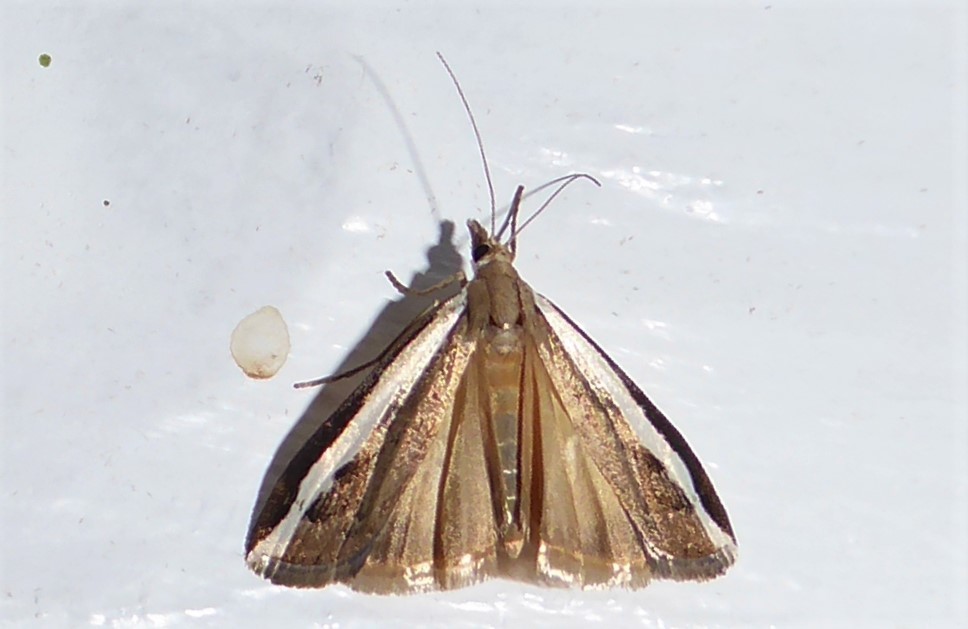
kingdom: Animalia
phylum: Arthropoda
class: Insecta
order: Lepidoptera
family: Crambidae
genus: Orocrambus
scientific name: Orocrambus flexuosellus
